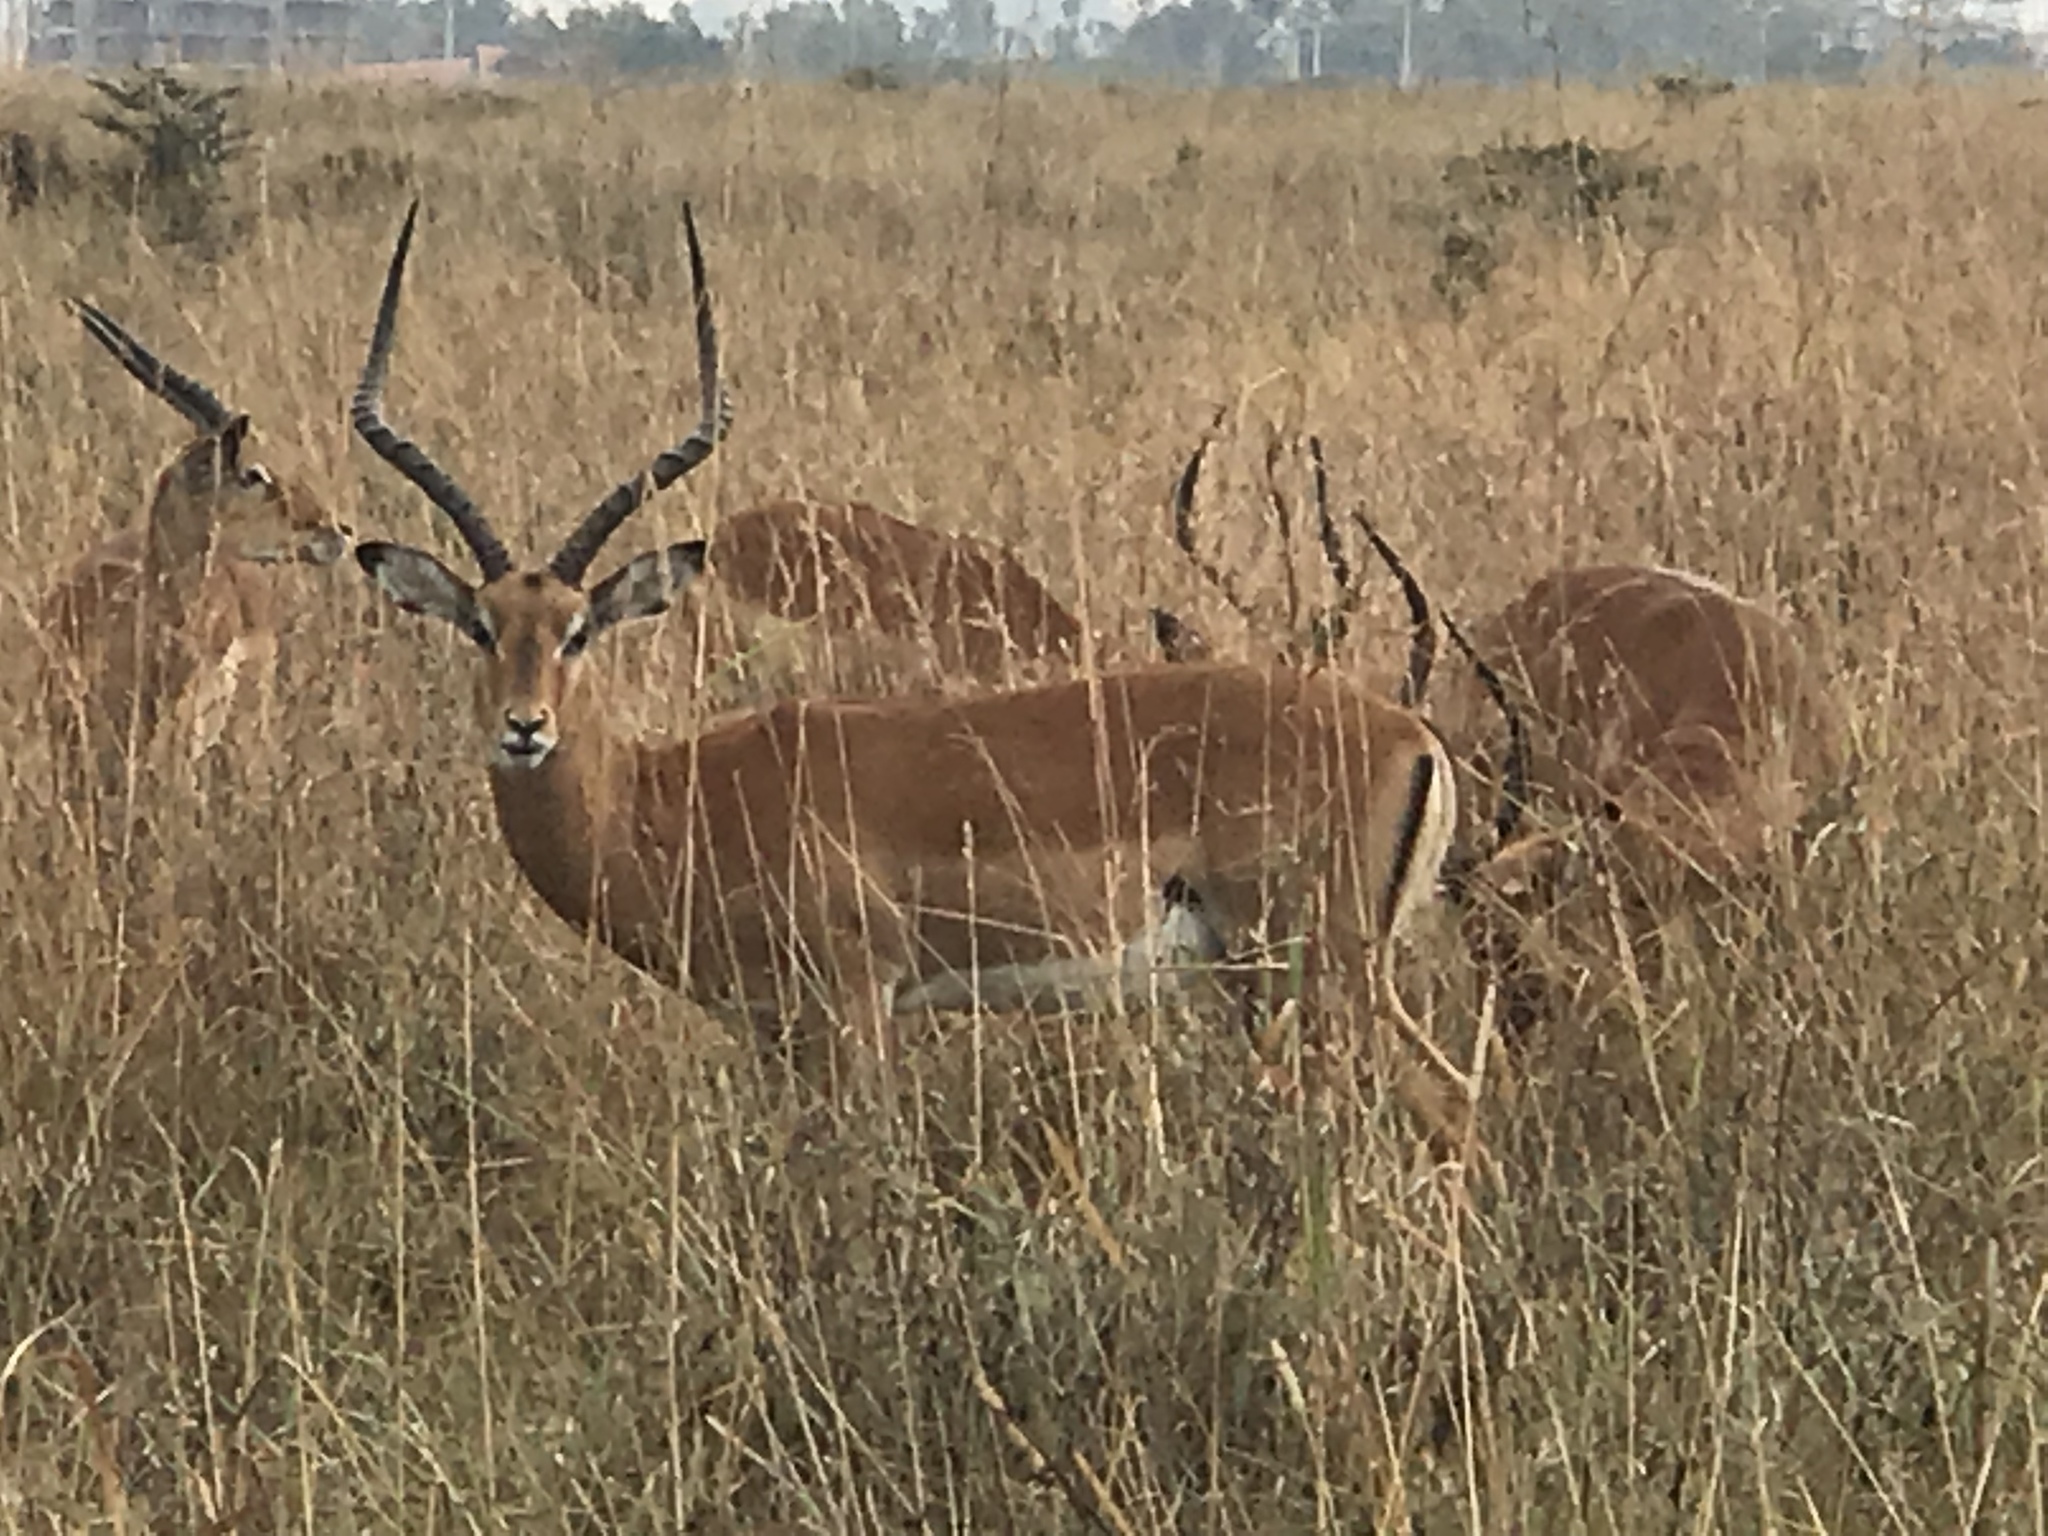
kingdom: Animalia
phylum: Chordata
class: Mammalia
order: Artiodactyla
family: Bovidae
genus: Aepyceros
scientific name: Aepyceros melampus
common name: Impala
